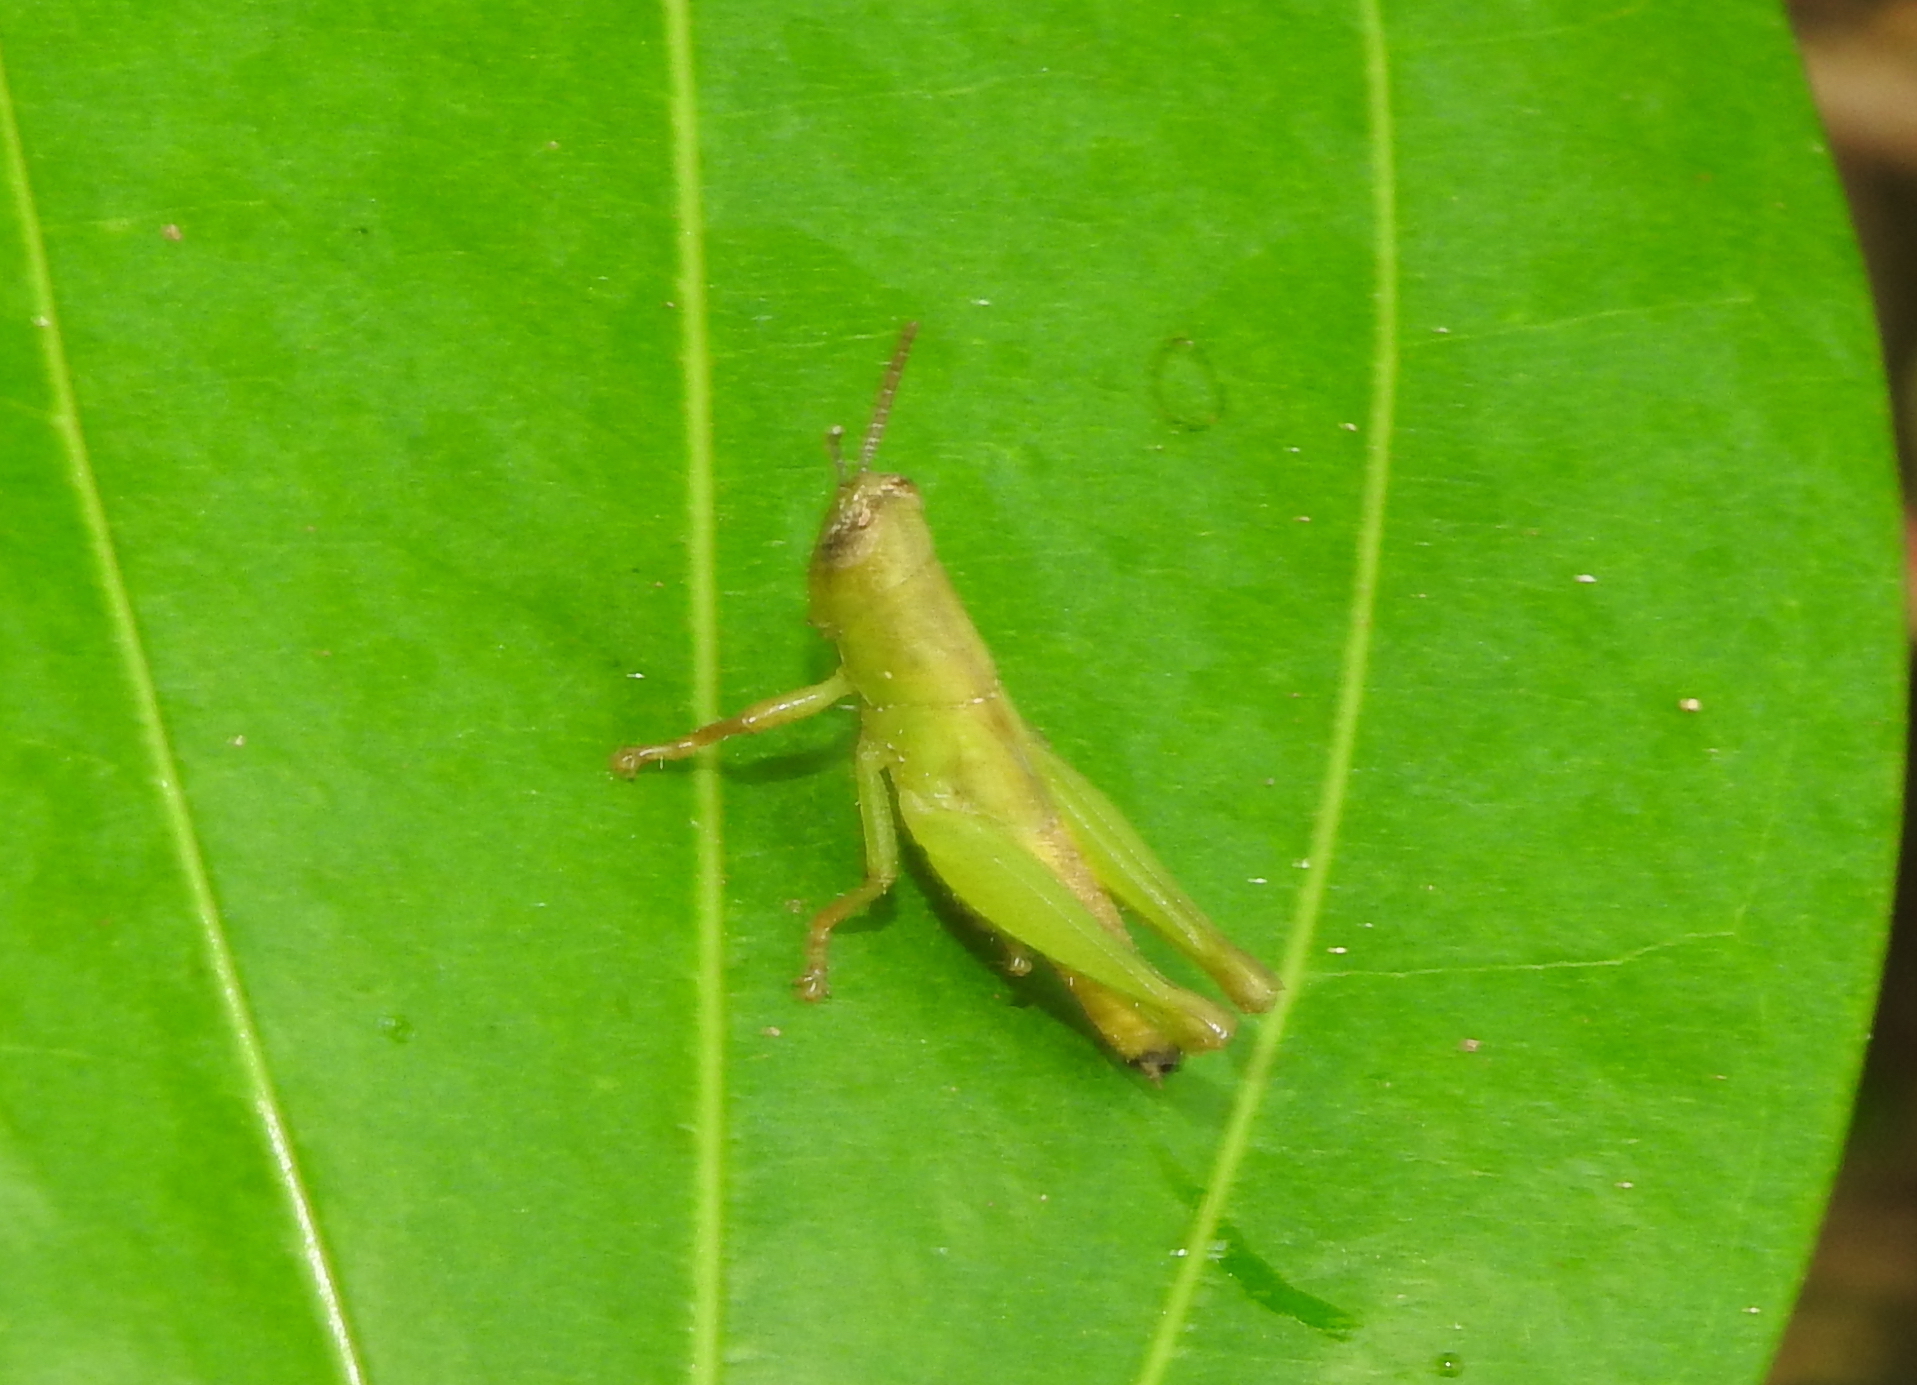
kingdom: Animalia
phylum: Arthropoda
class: Insecta
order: Orthoptera
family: Acrididae
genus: Pseudoxya
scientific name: Pseudoxya diminuta
